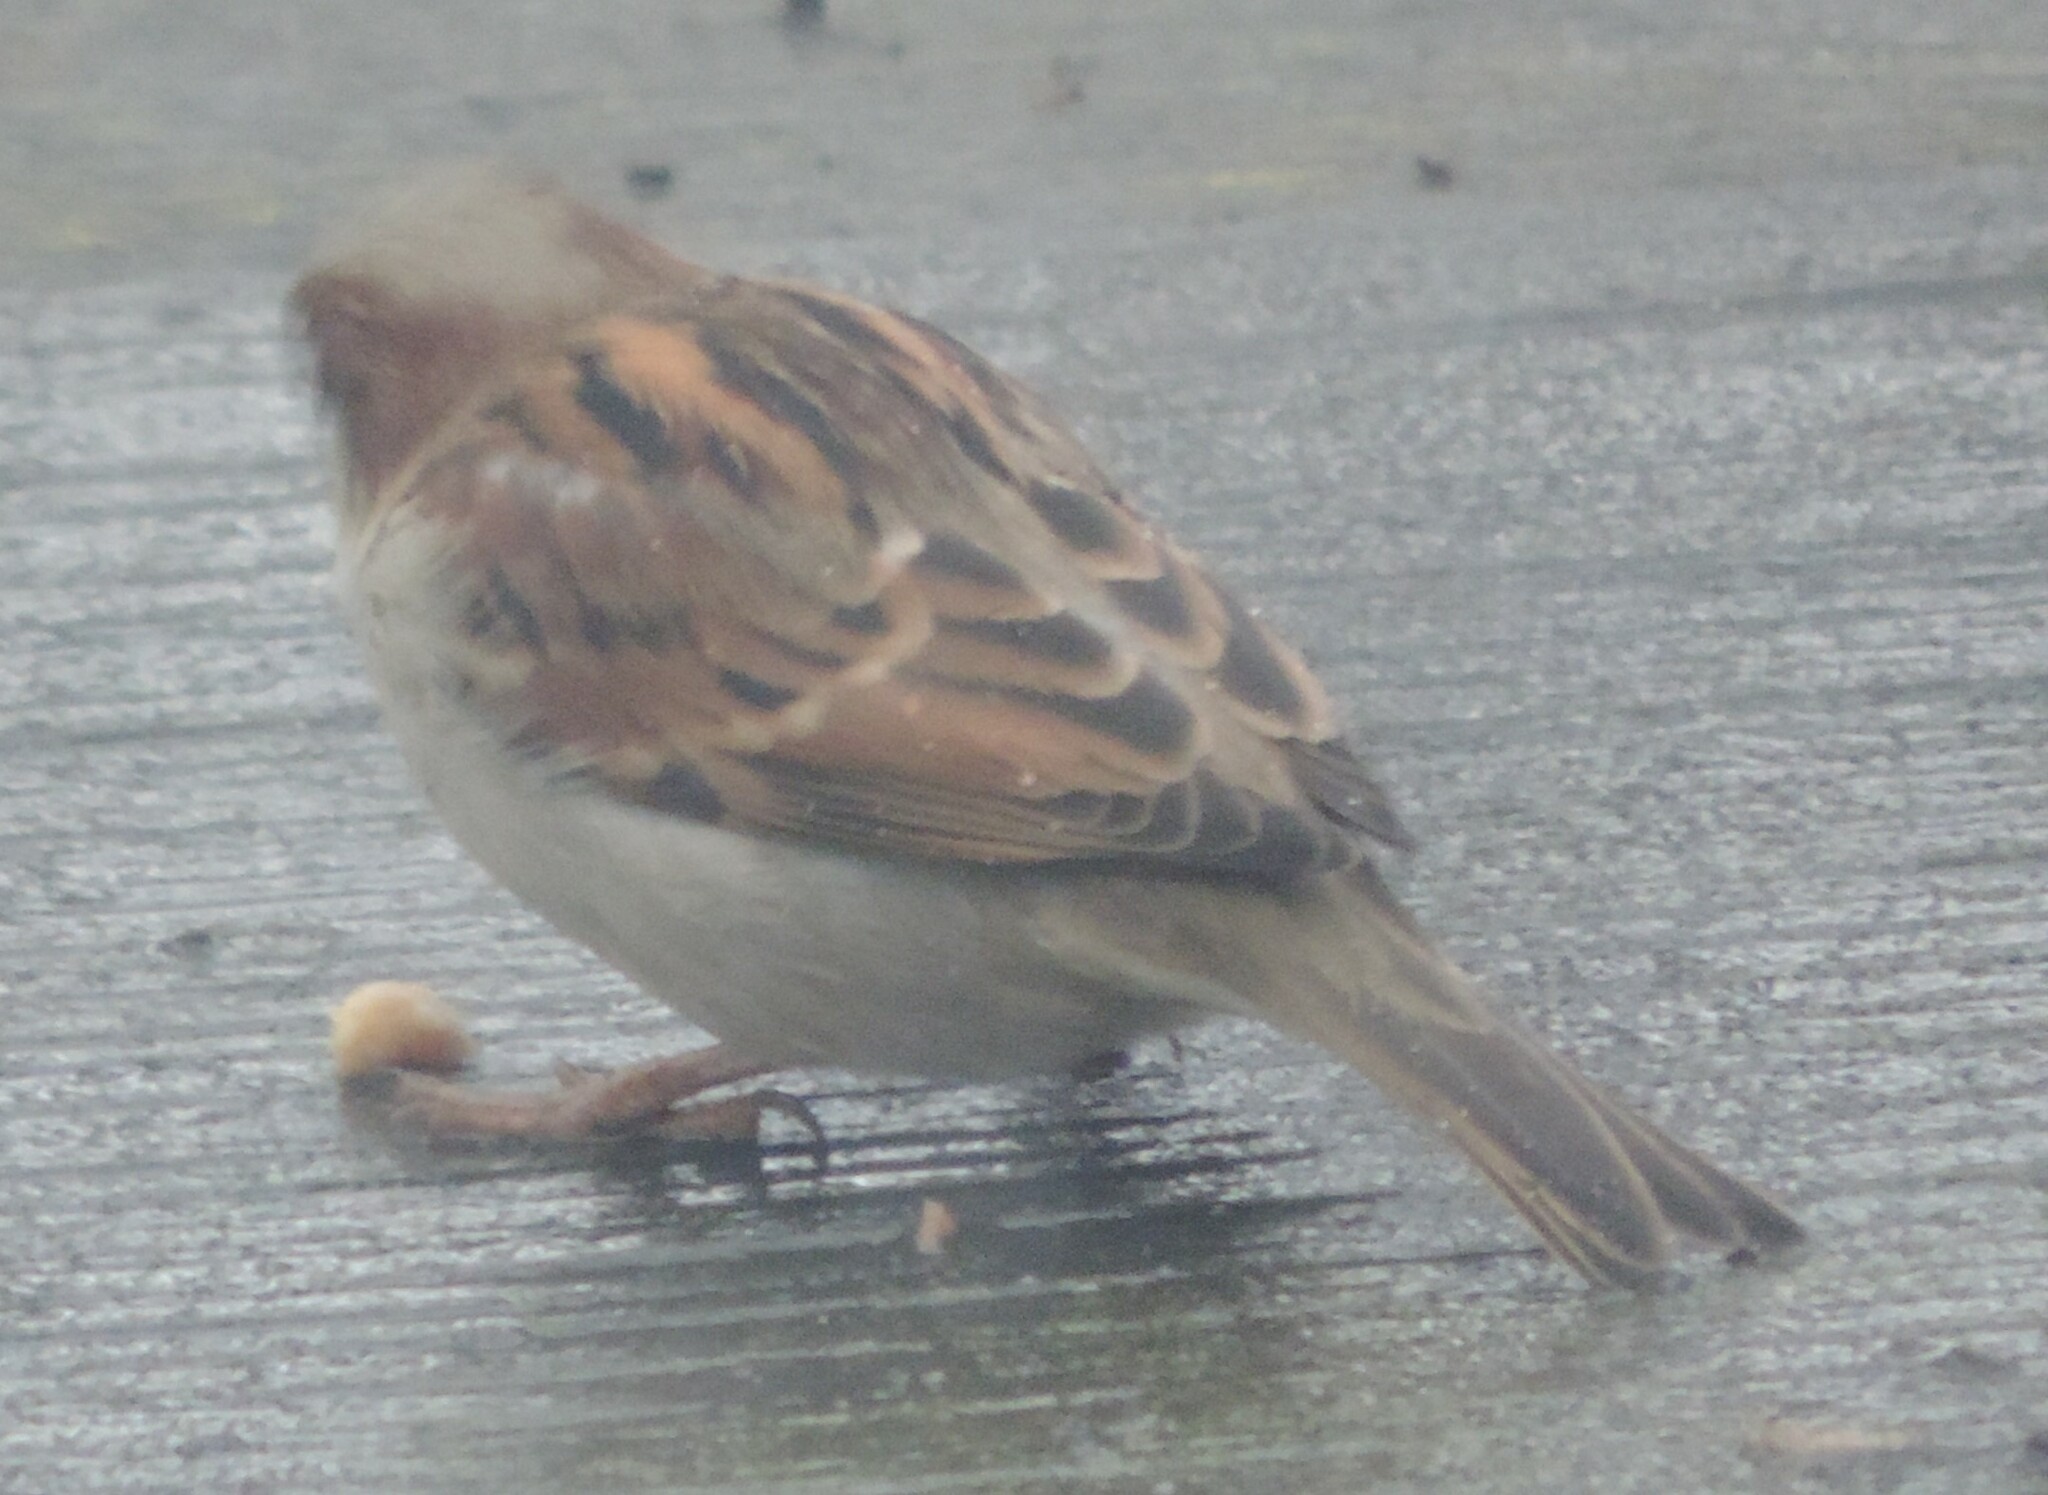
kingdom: Animalia
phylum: Chordata
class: Aves
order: Passeriformes
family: Passeridae
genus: Passer
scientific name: Passer domesticus
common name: House sparrow
